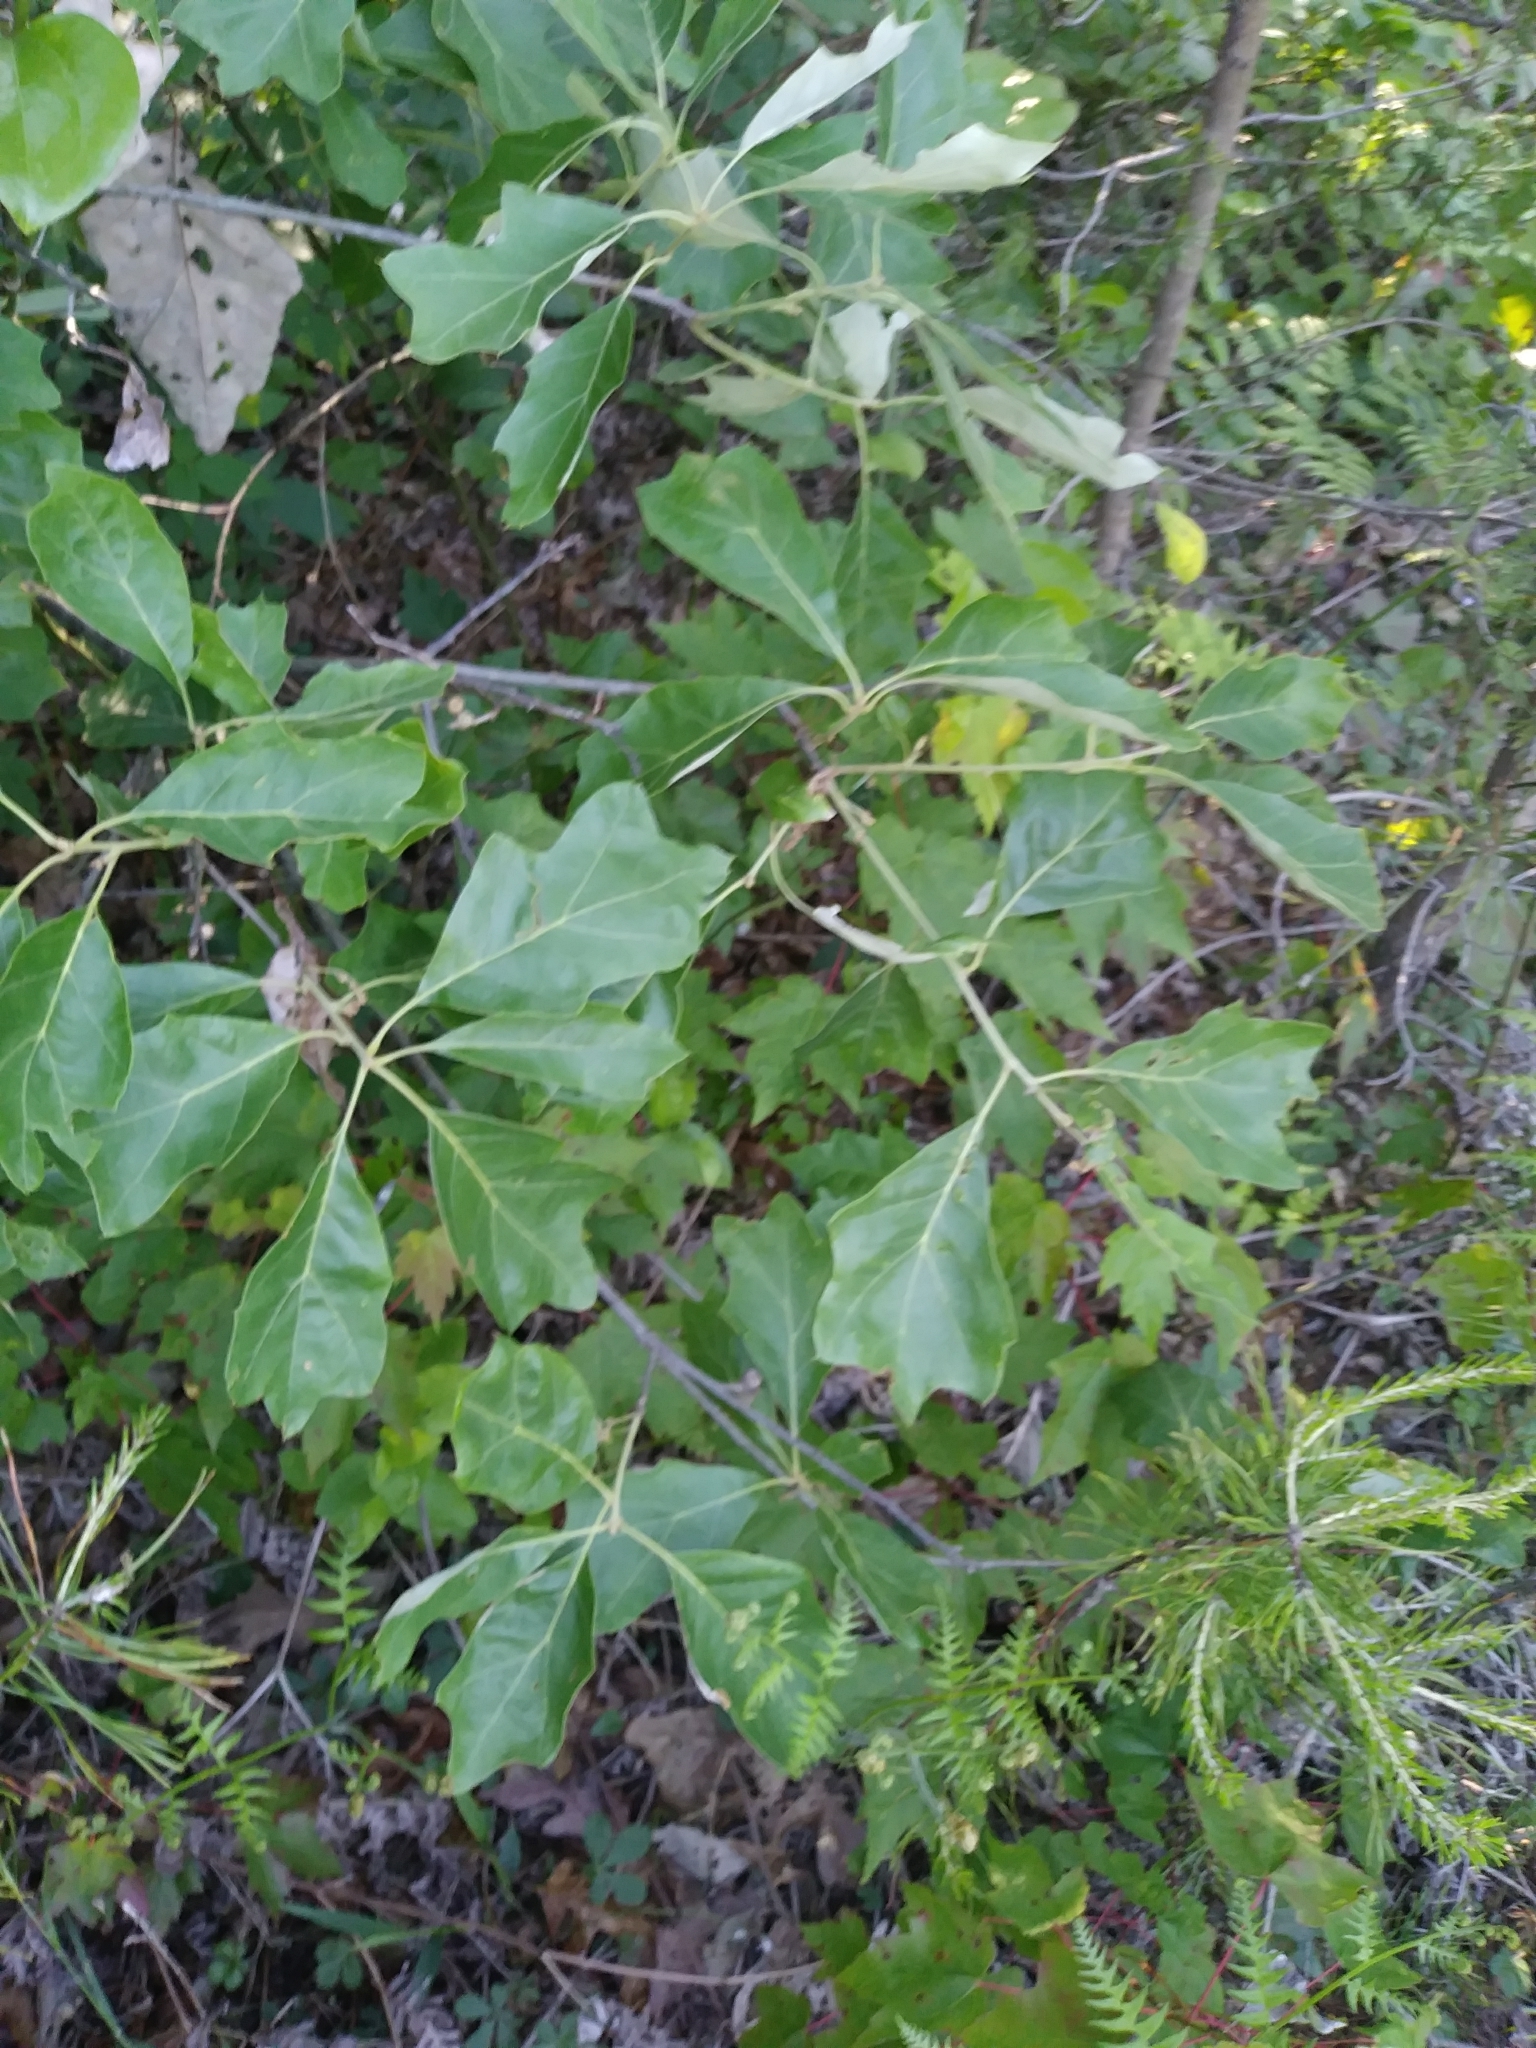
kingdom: Plantae
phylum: Tracheophyta
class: Magnoliopsida
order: Fagales
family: Fagaceae
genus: Quercus
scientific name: Quercus ilicifolia
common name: Bear oak
